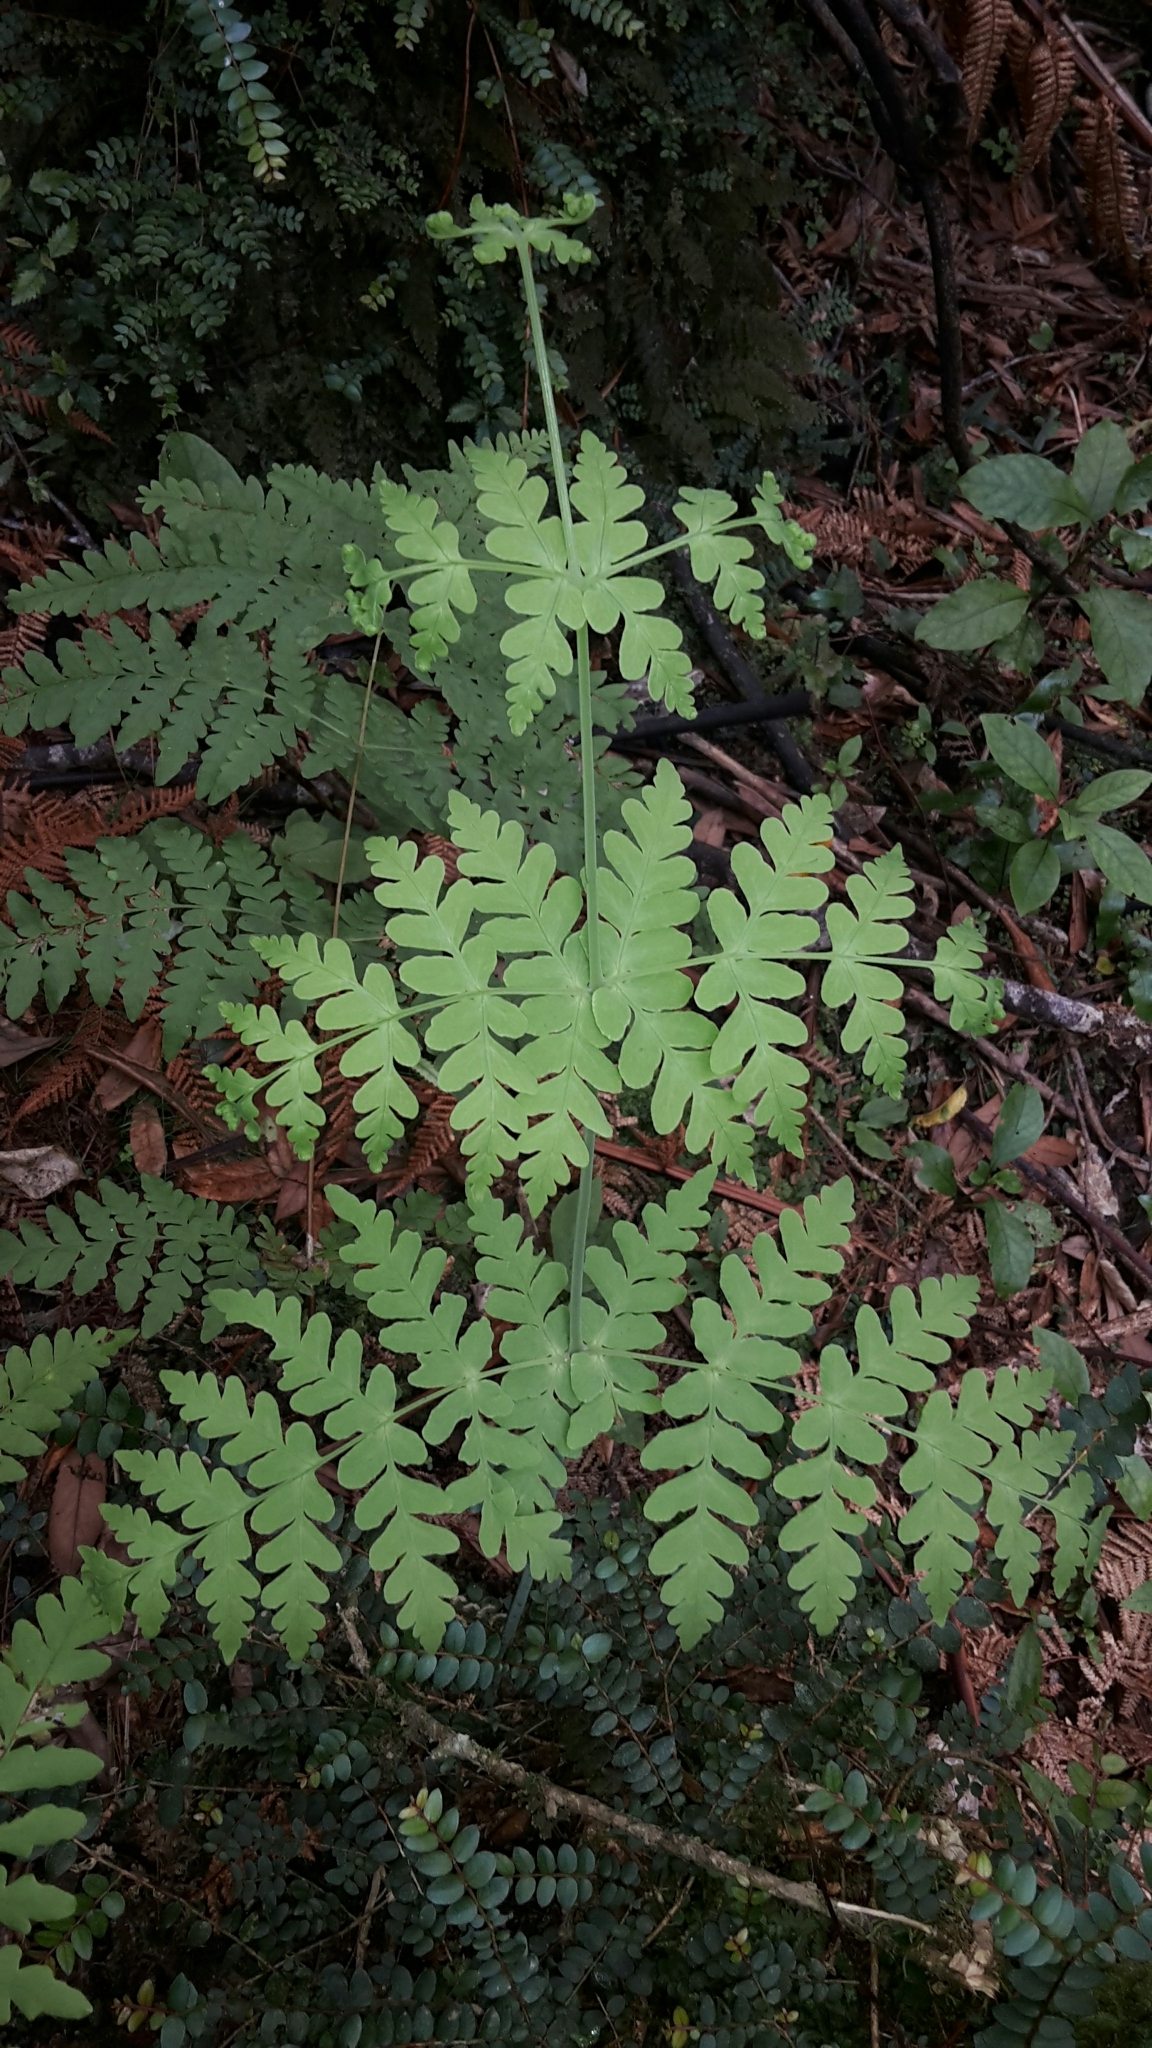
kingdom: Plantae
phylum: Tracheophyta
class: Polypodiopsida
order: Polypodiales
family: Dennstaedtiaceae
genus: Histiopteris
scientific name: Histiopteris incisa
